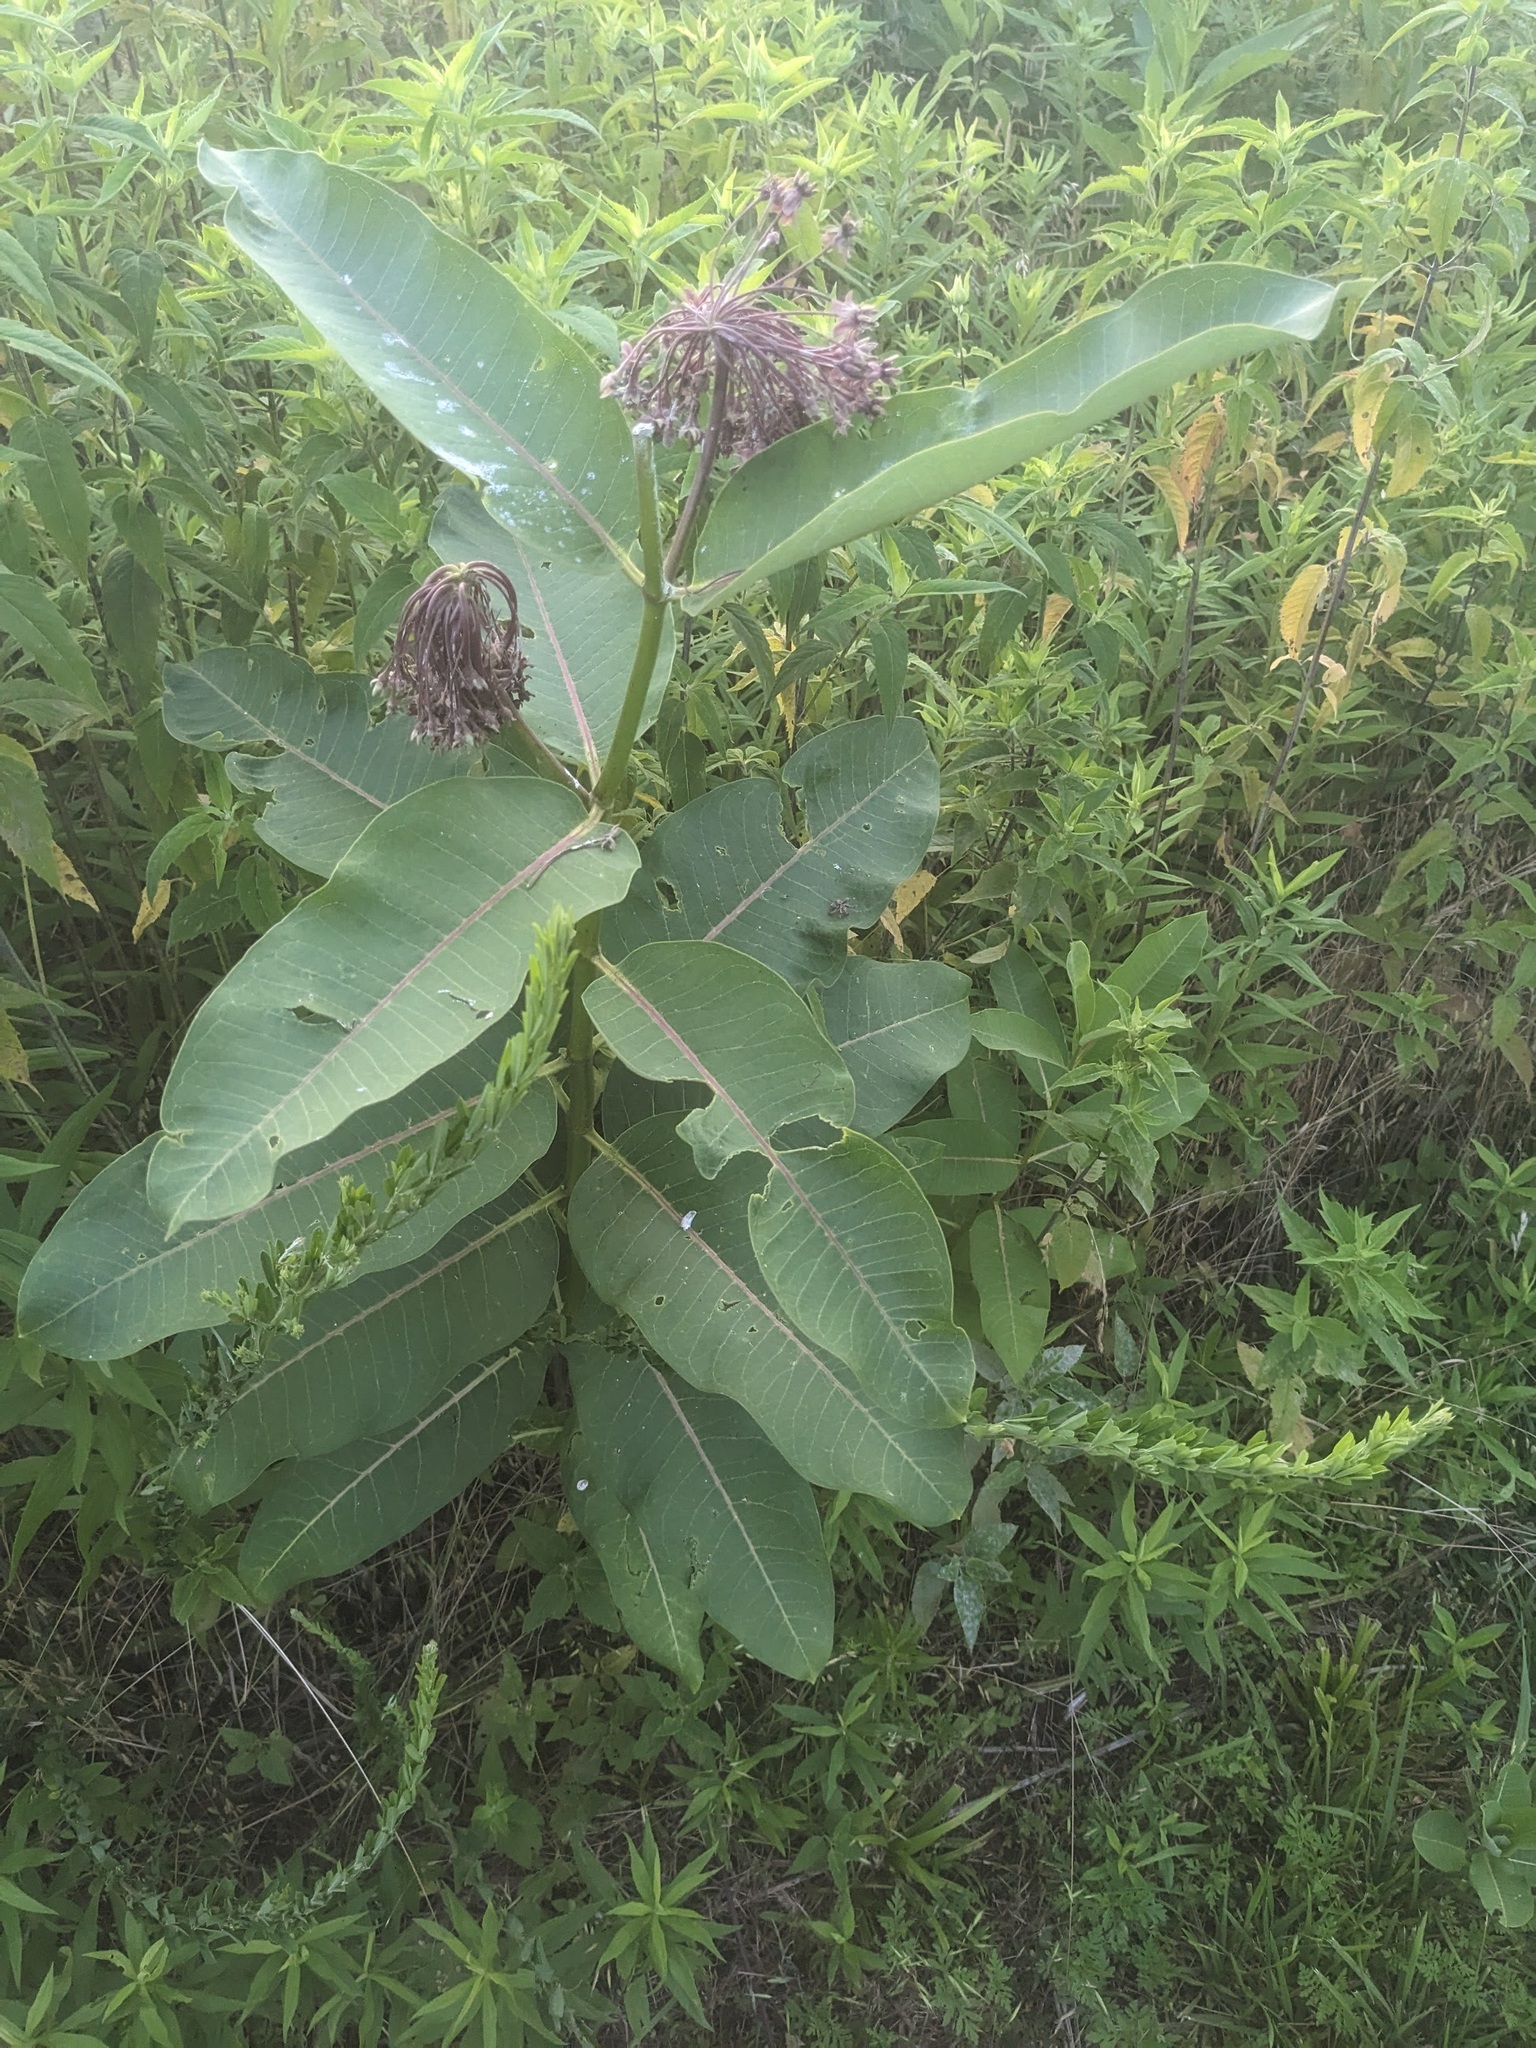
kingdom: Plantae
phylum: Tracheophyta
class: Magnoliopsida
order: Gentianales
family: Apocynaceae
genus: Asclepias
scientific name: Asclepias syriaca
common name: Common milkweed
